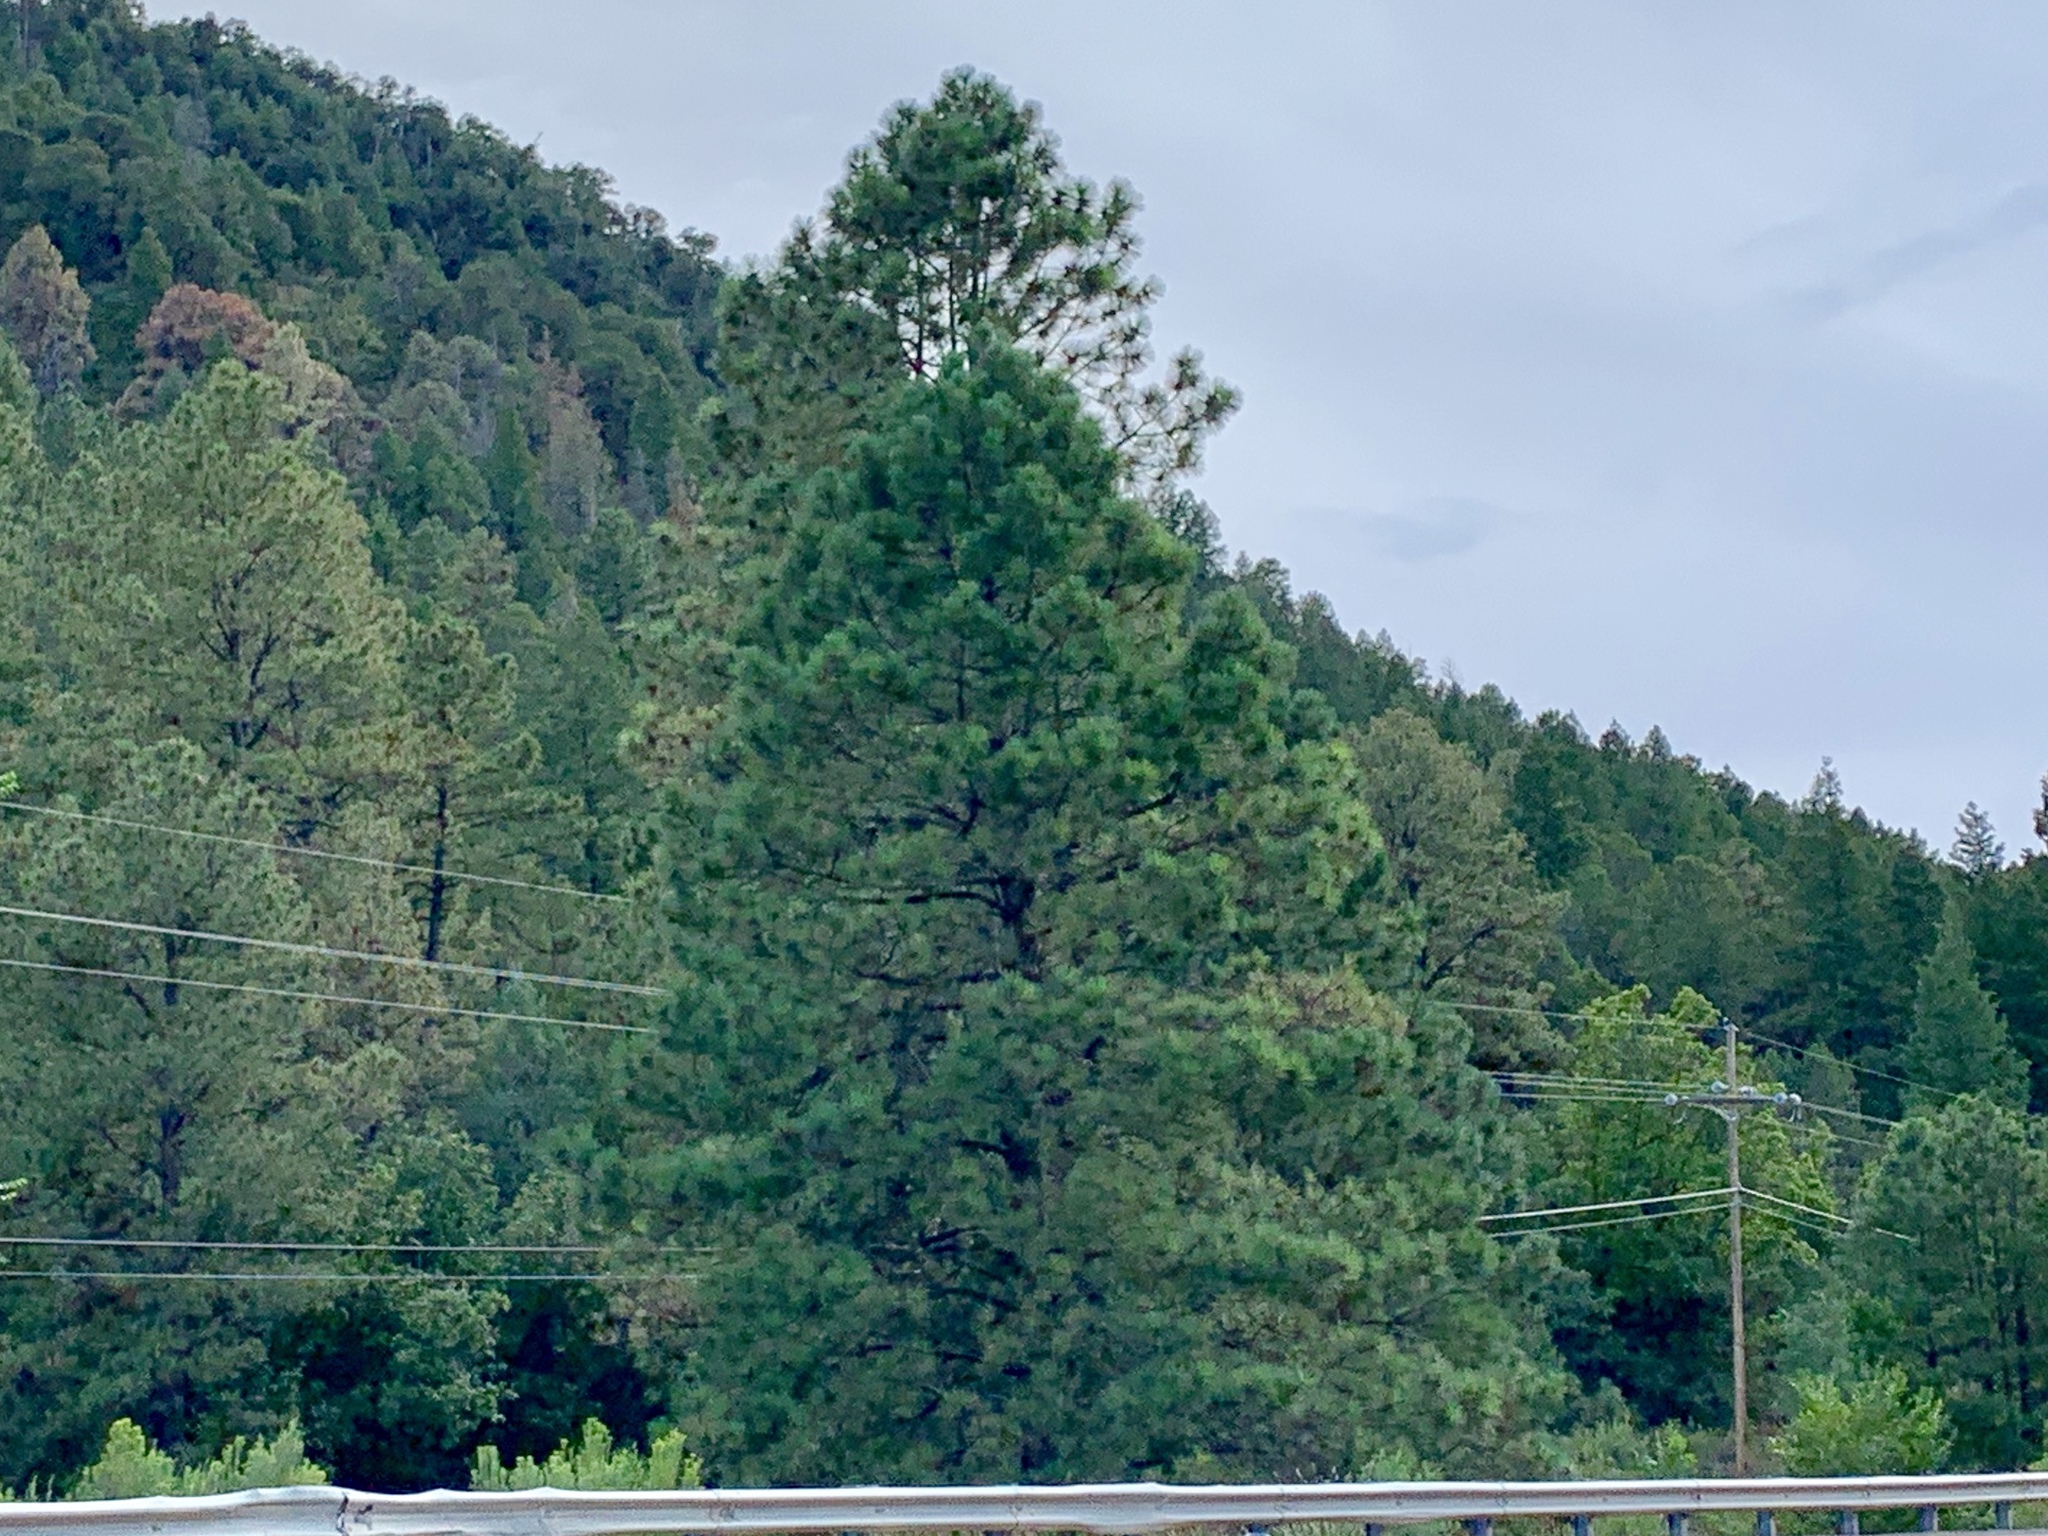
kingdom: Plantae
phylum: Tracheophyta
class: Pinopsida
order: Pinales
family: Pinaceae
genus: Pinus
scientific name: Pinus ponderosa
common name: Western yellow-pine
